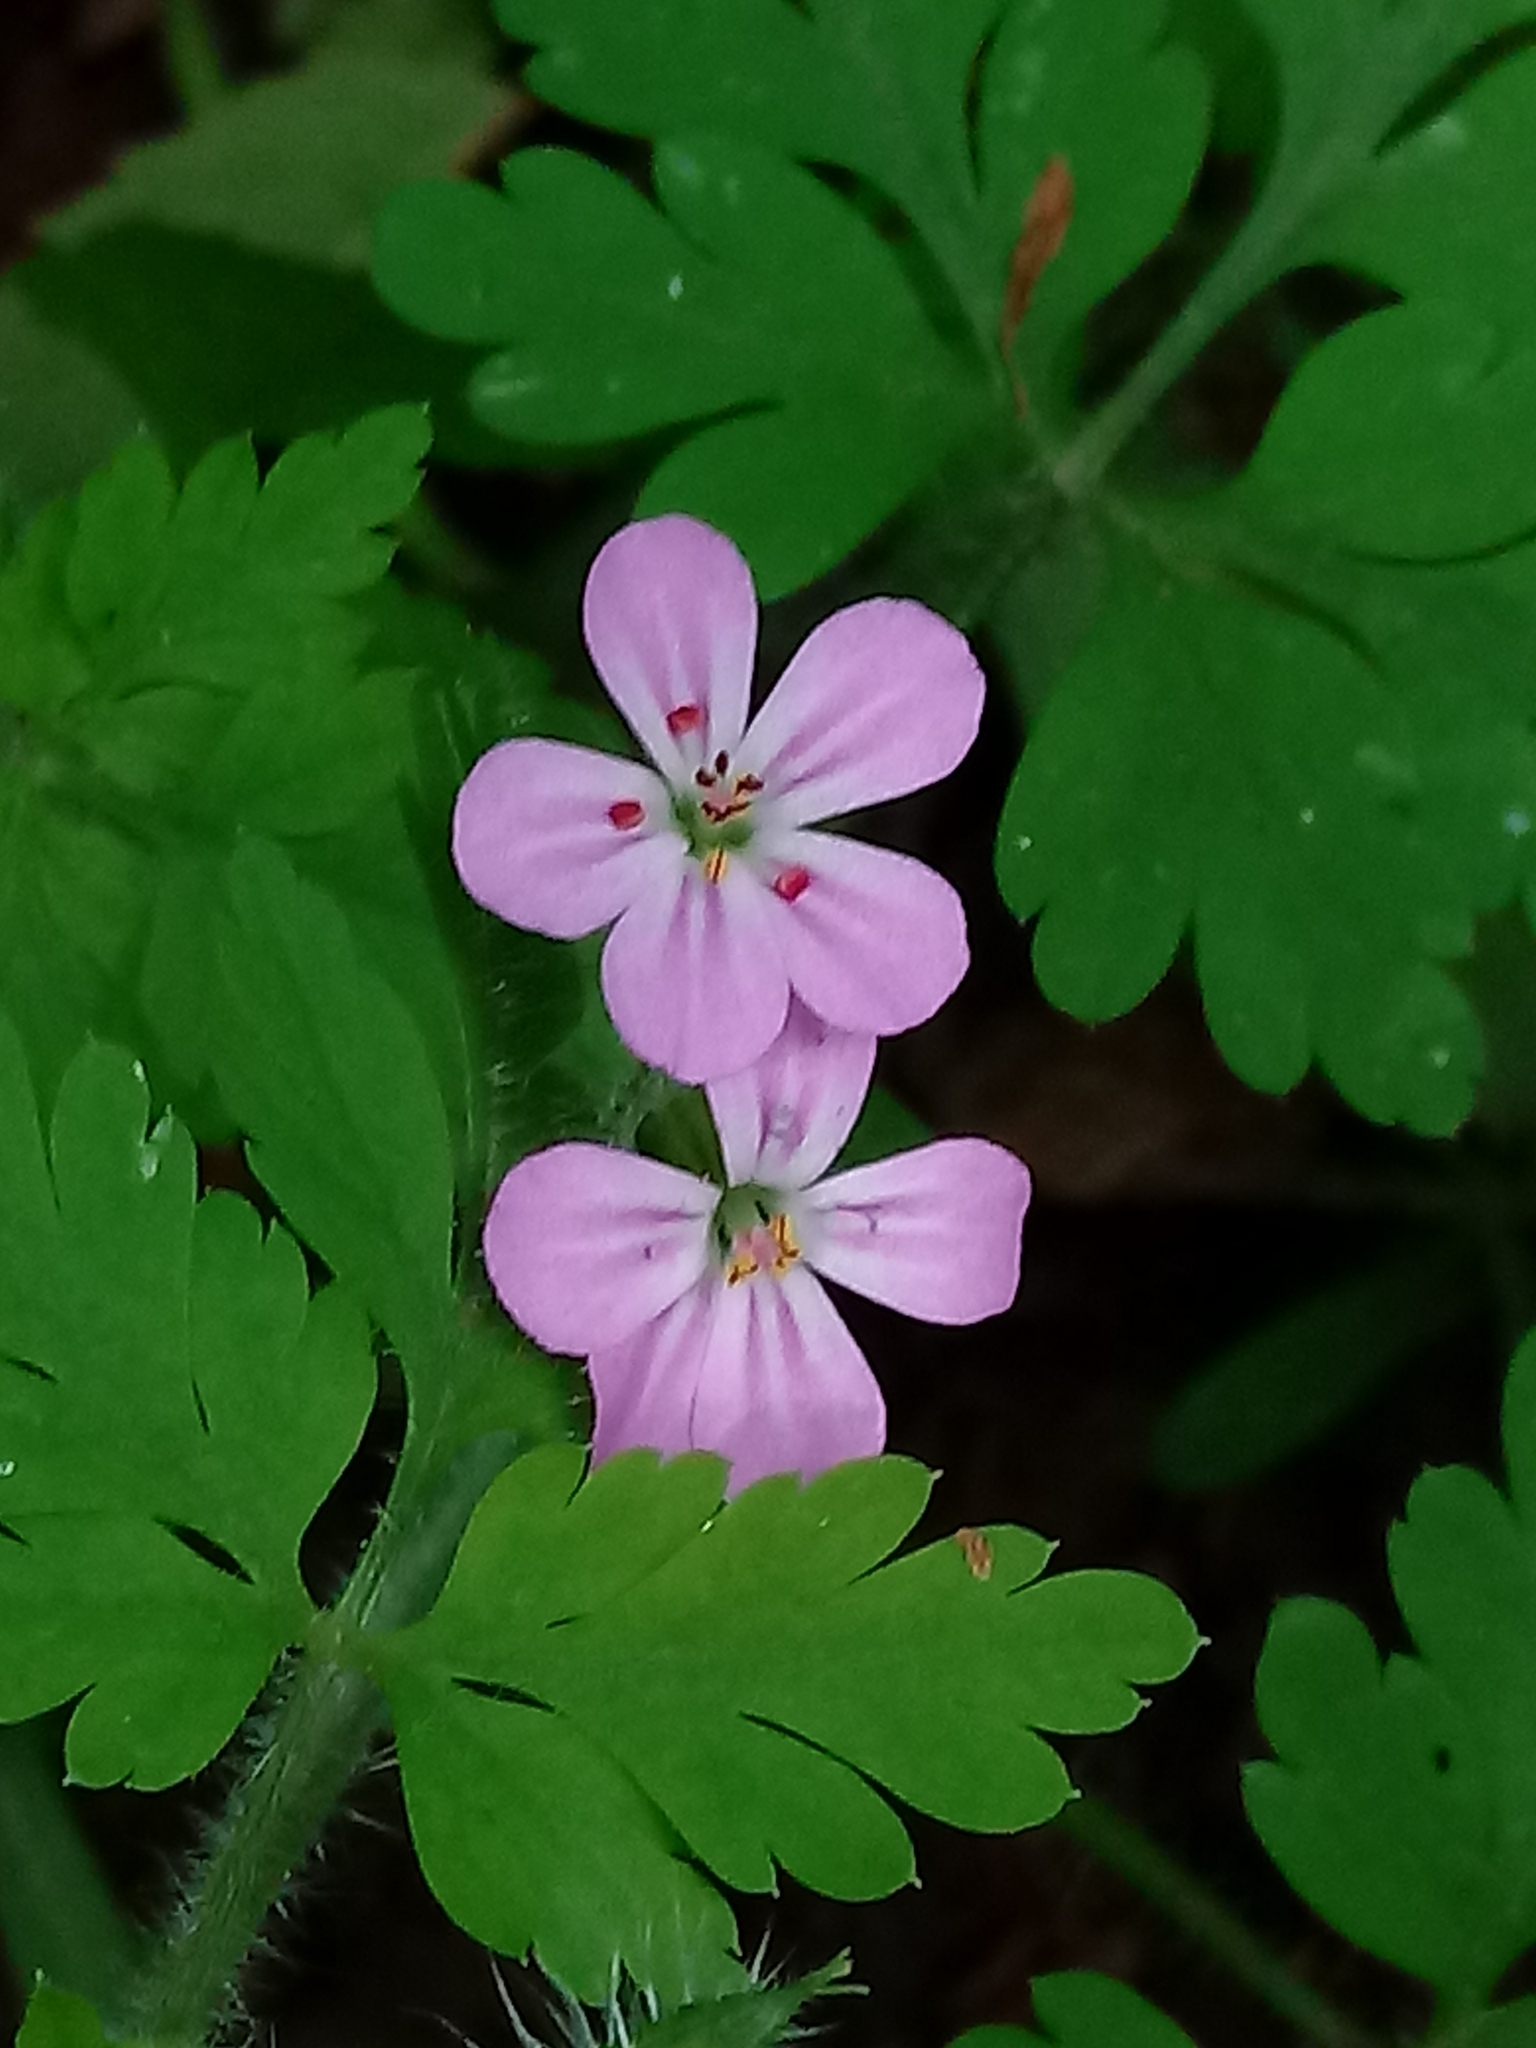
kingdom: Plantae
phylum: Tracheophyta
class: Magnoliopsida
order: Geraniales
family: Geraniaceae
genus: Geranium
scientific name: Geranium robertianum
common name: Herb-robert
